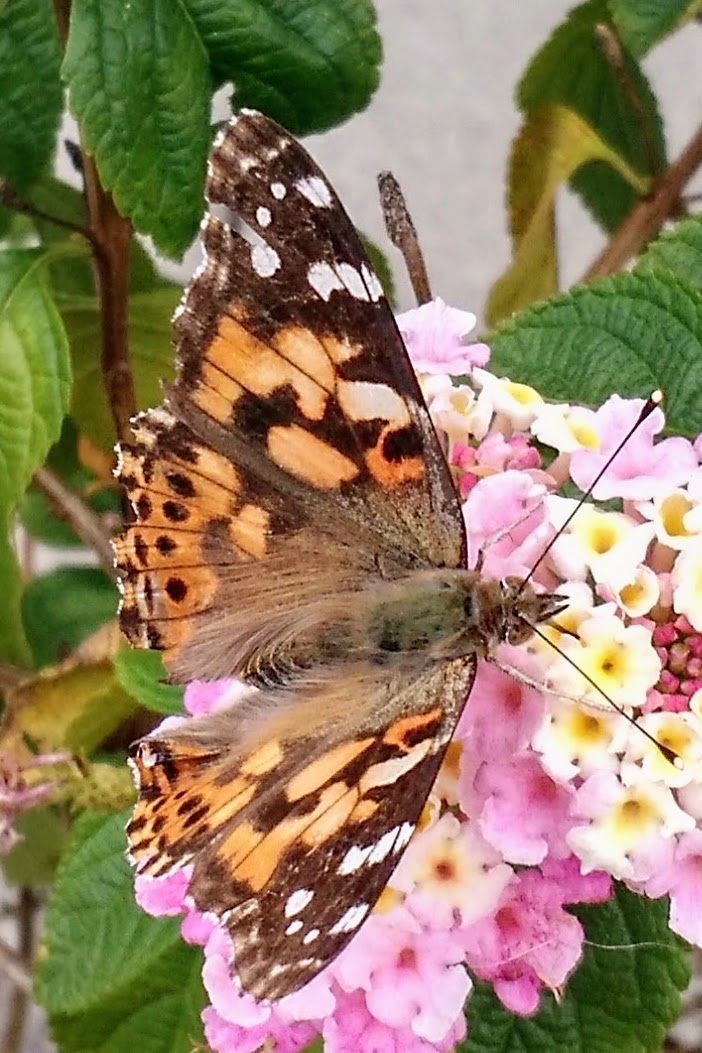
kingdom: Animalia
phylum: Arthropoda
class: Insecta
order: Lepidoptera
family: Nymphalidae
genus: Vanessa
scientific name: Vanessa cardui
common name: Painted lady
